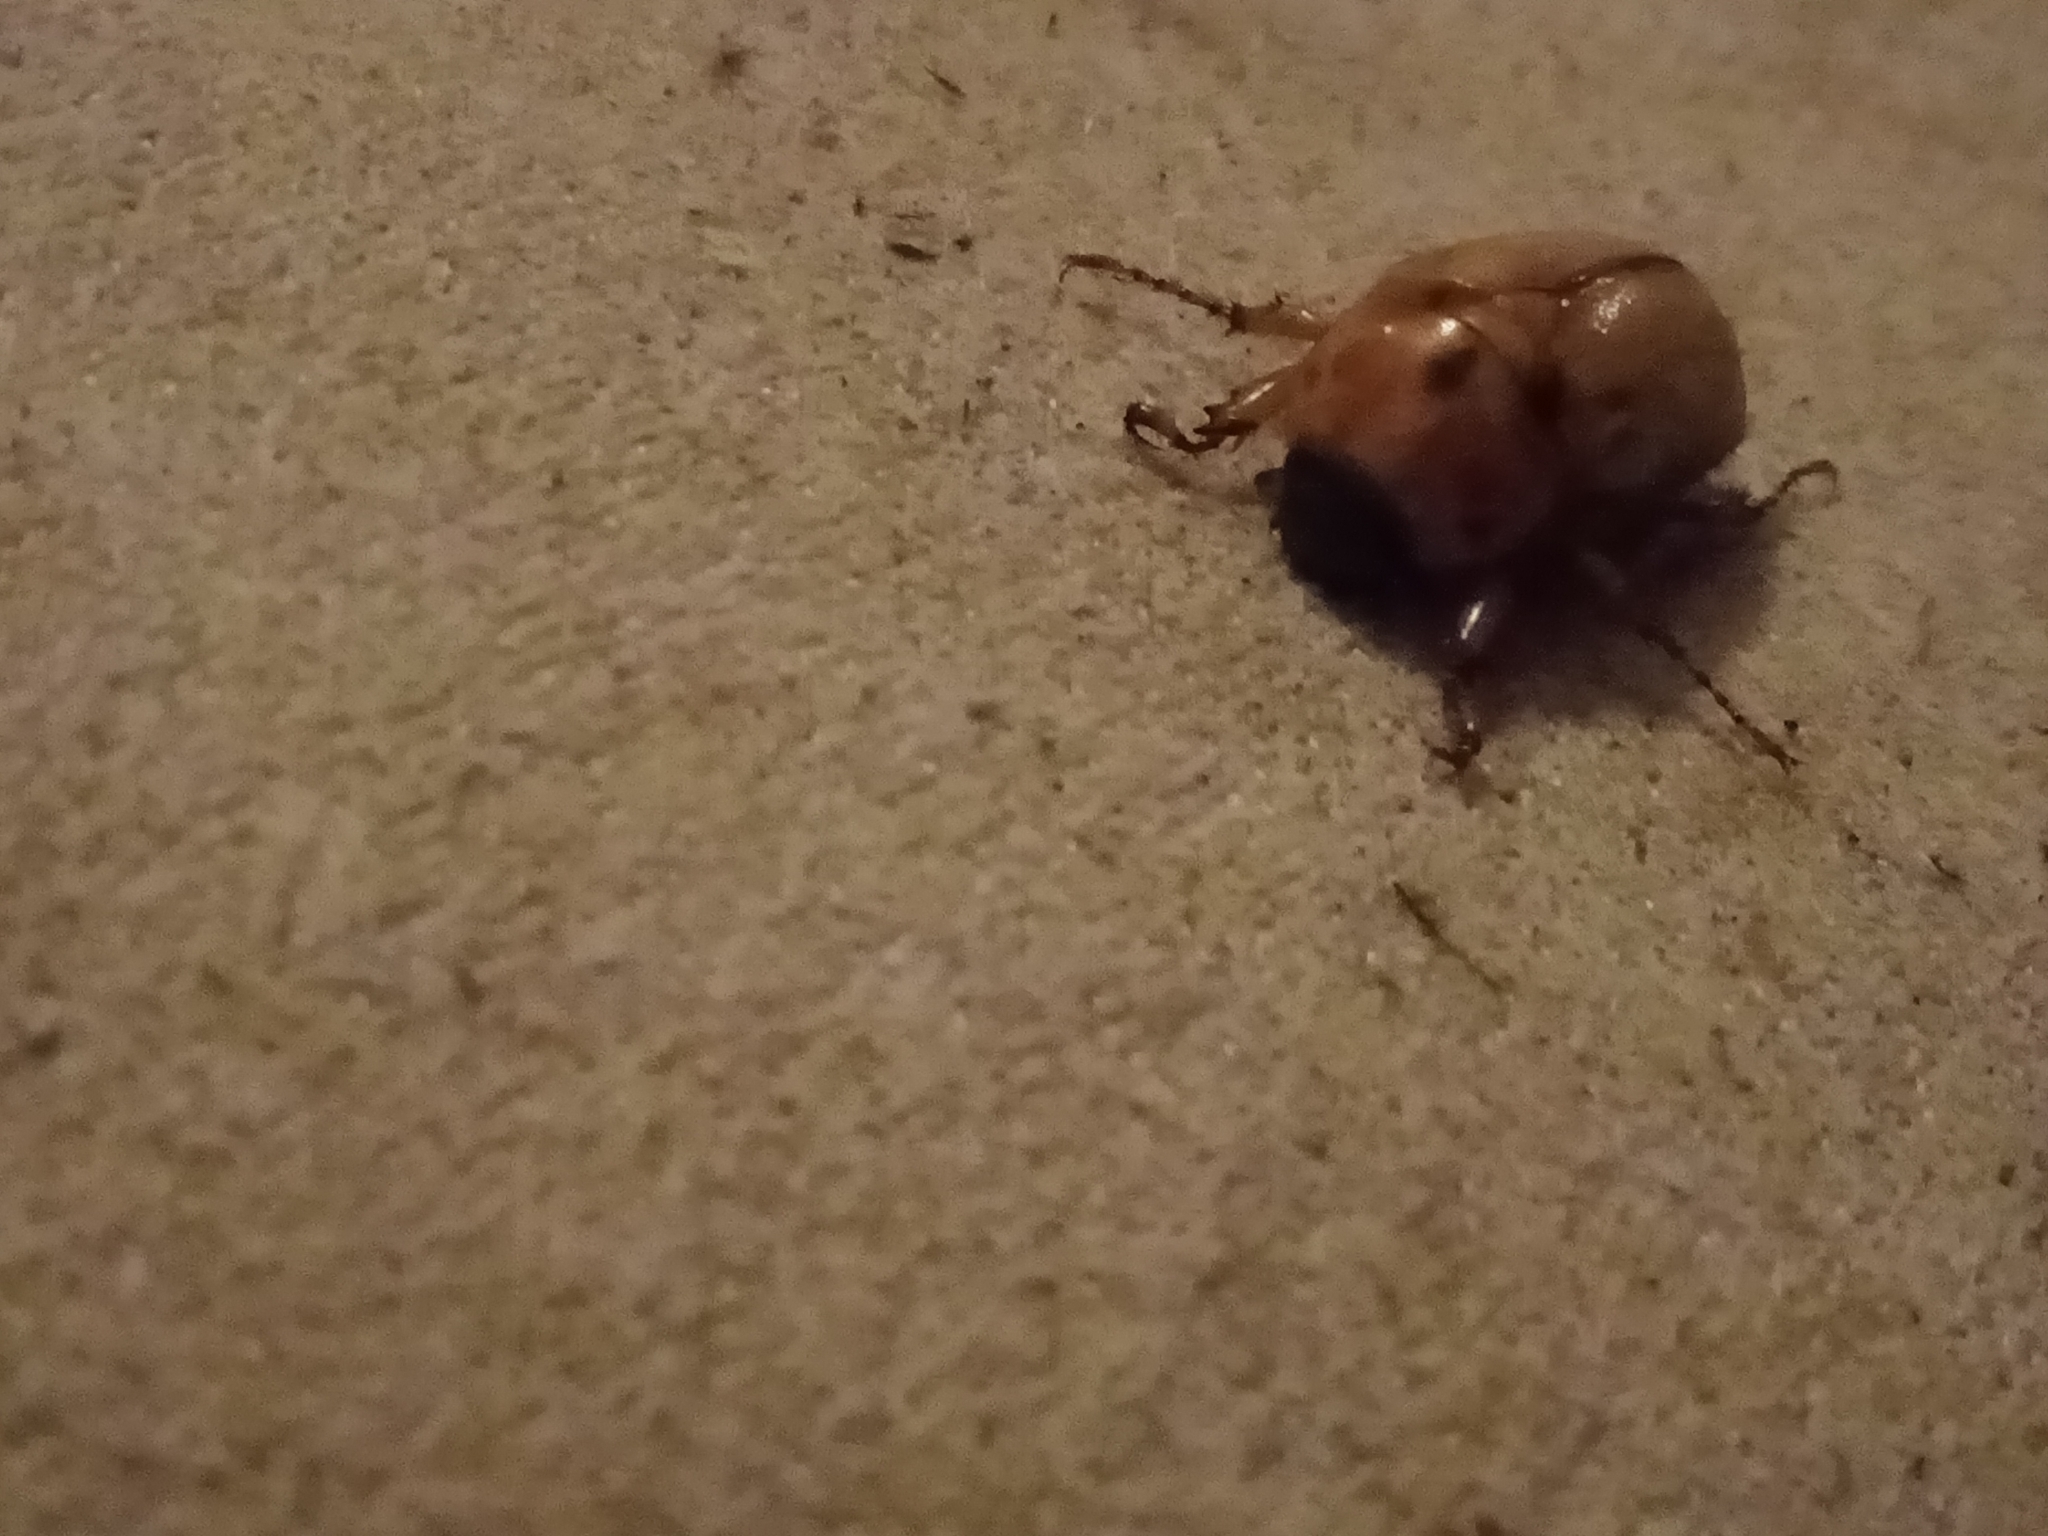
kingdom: Animalia
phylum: Arthropoda
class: Insecta
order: Coleoptera
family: Scarabaeidae
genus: Cyclocephala
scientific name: Cyclocephala signaticollis
